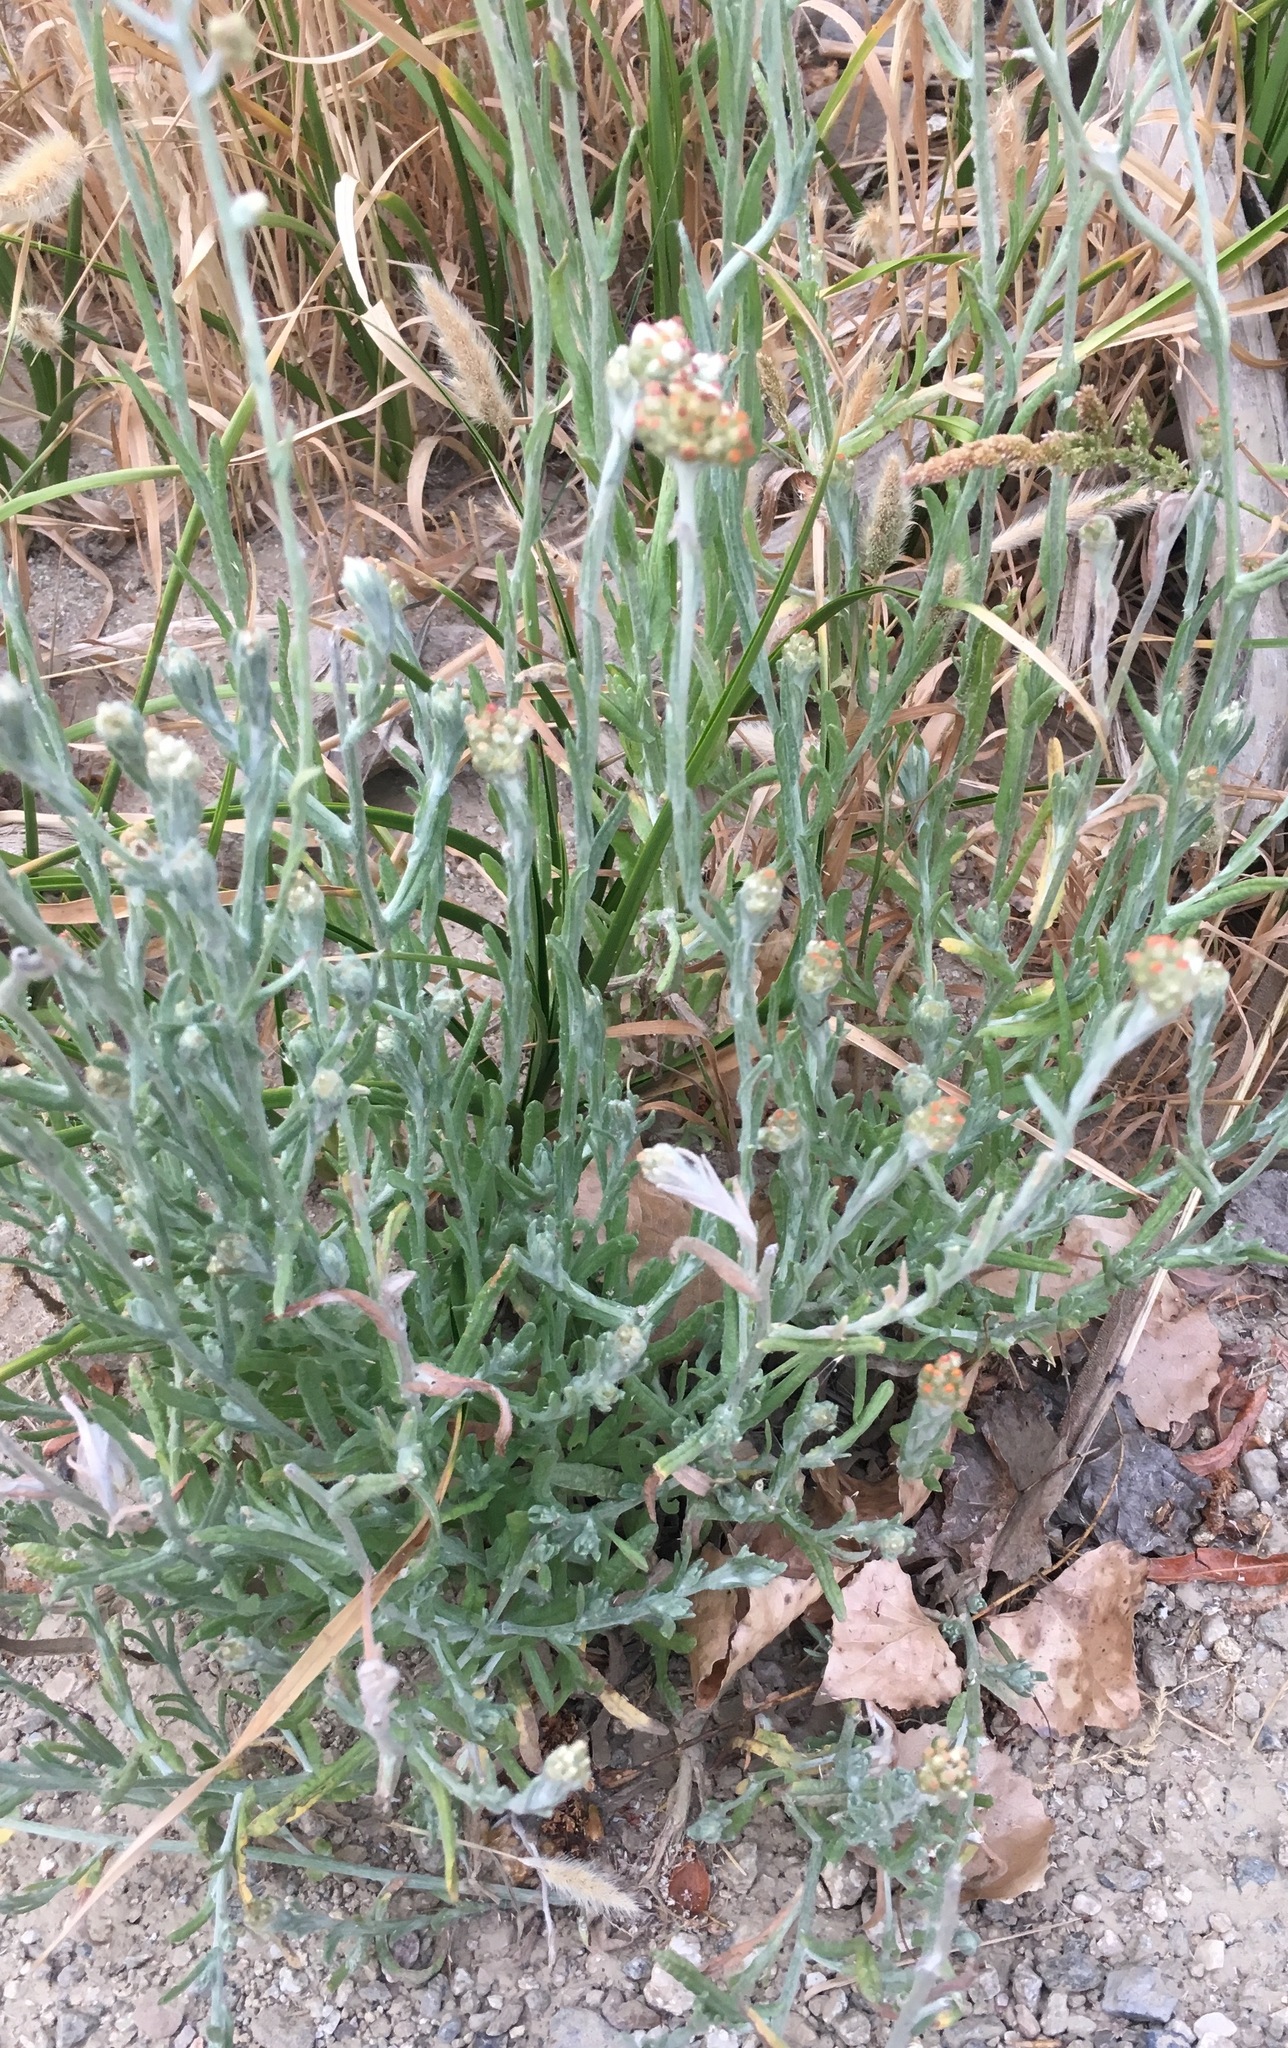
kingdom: Plantae
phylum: Tracheophyta
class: Magnoliopsida
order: Asterales
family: Asteraceae
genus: Helichrysum
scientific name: Helichrysum luteoalbum
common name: Daisy
